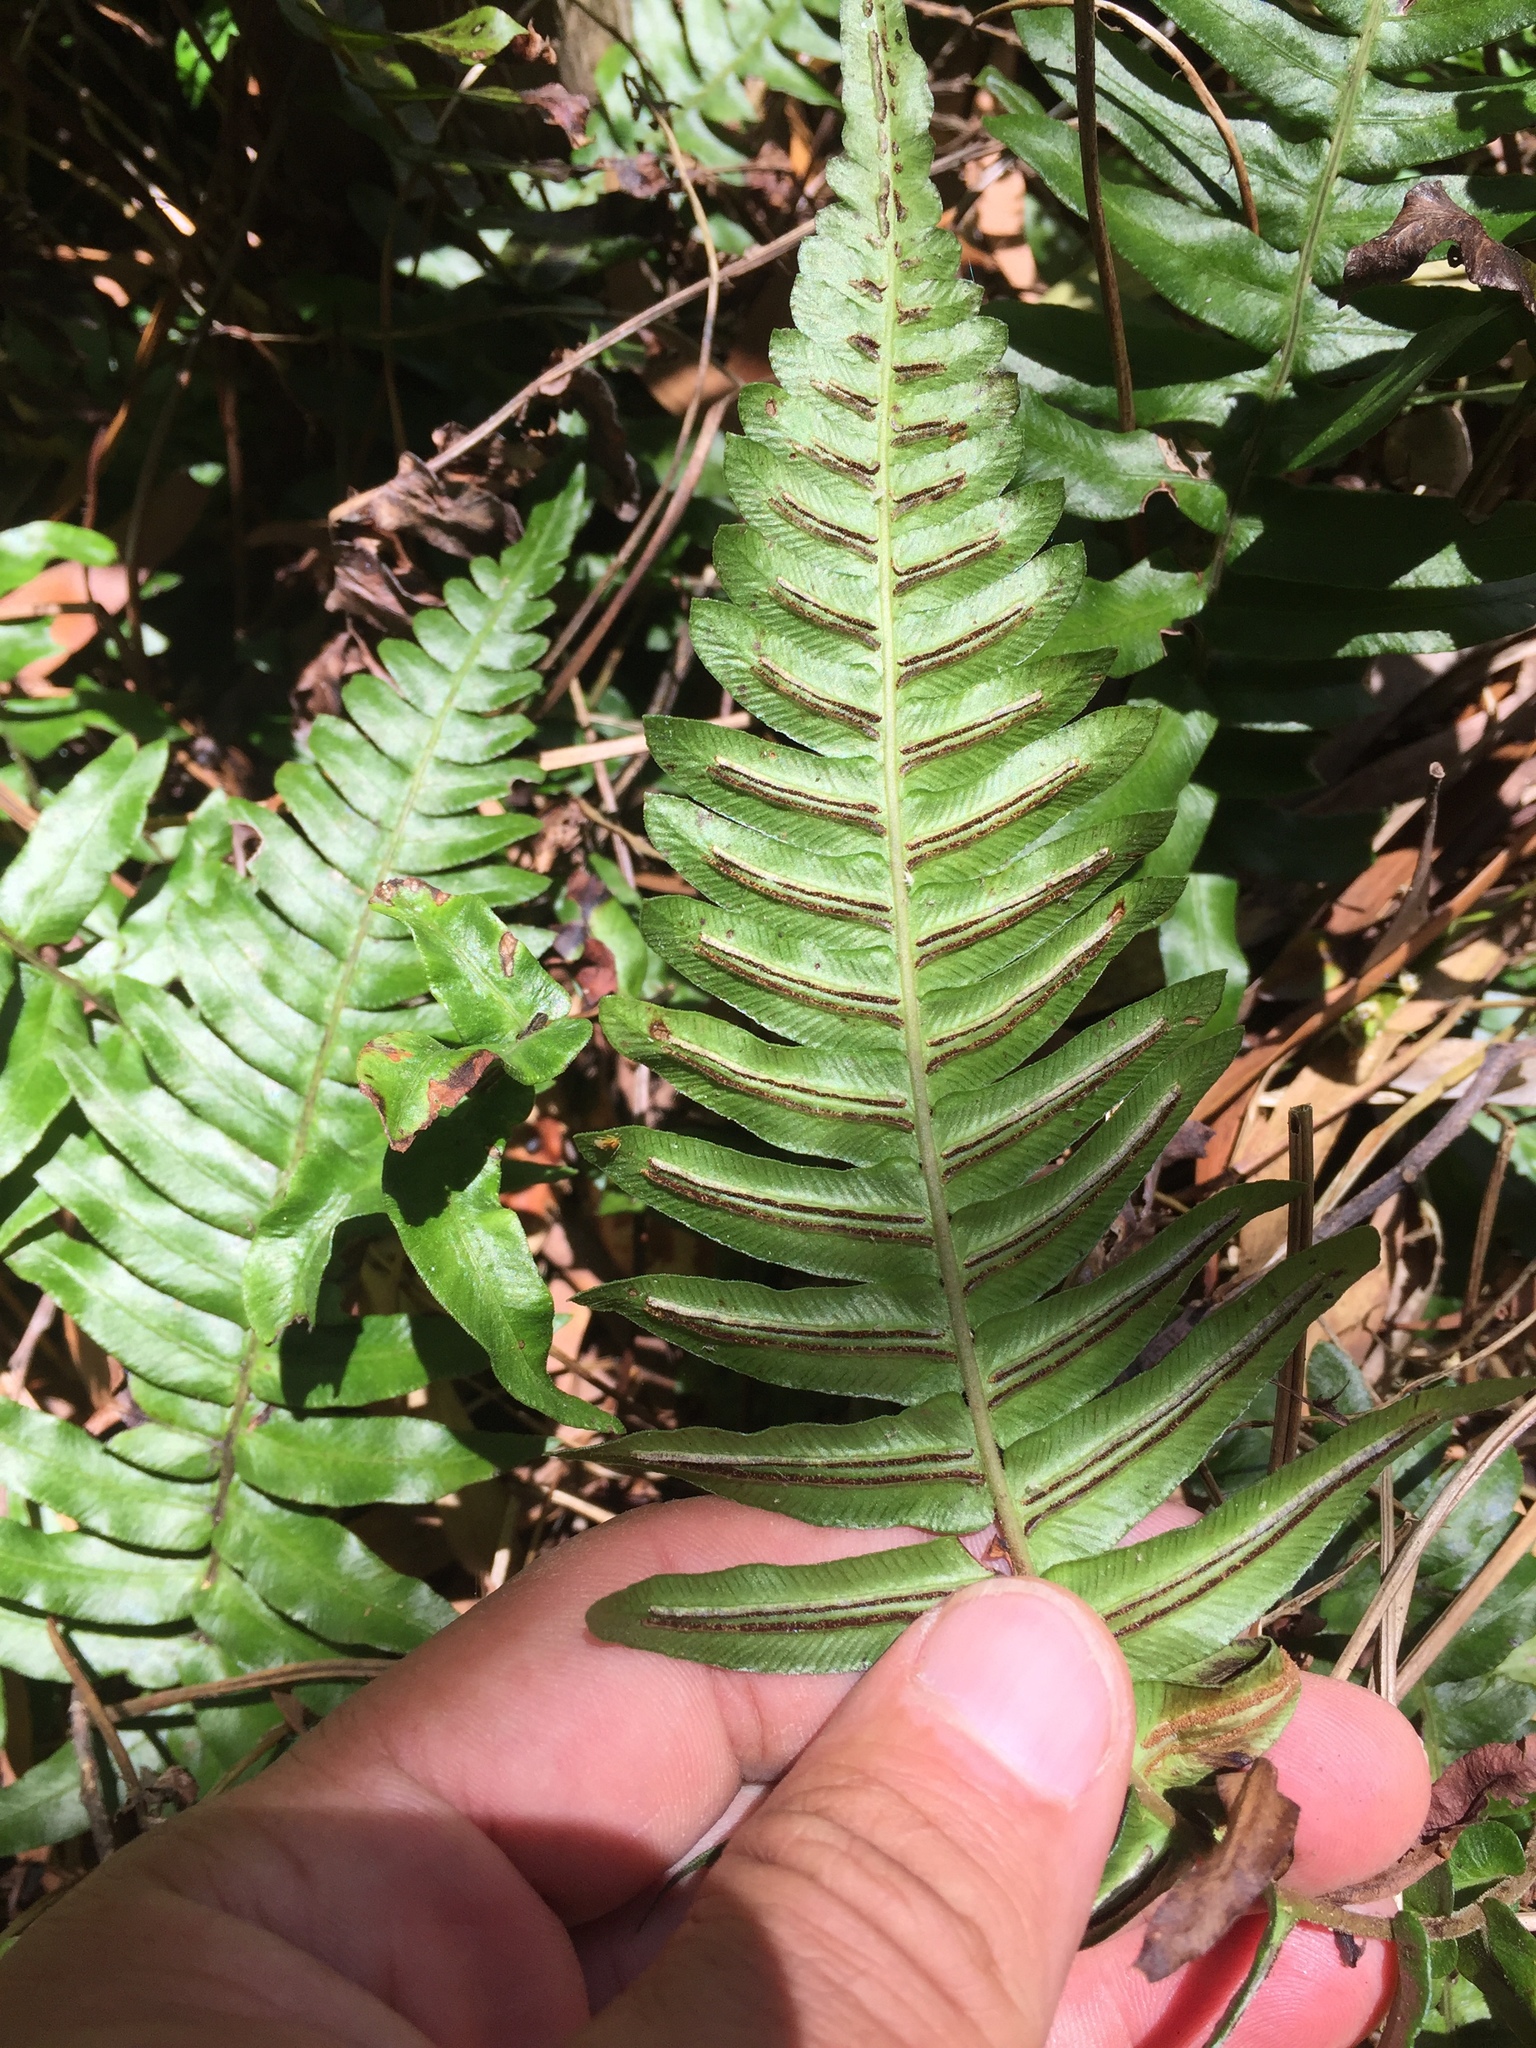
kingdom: Plantae
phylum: Tracheophyta
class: Polypodiopsida
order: Polypodiales
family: Blechnaceae
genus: Blechnum
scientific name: Blechnum appendiculatum
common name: Palm fern
